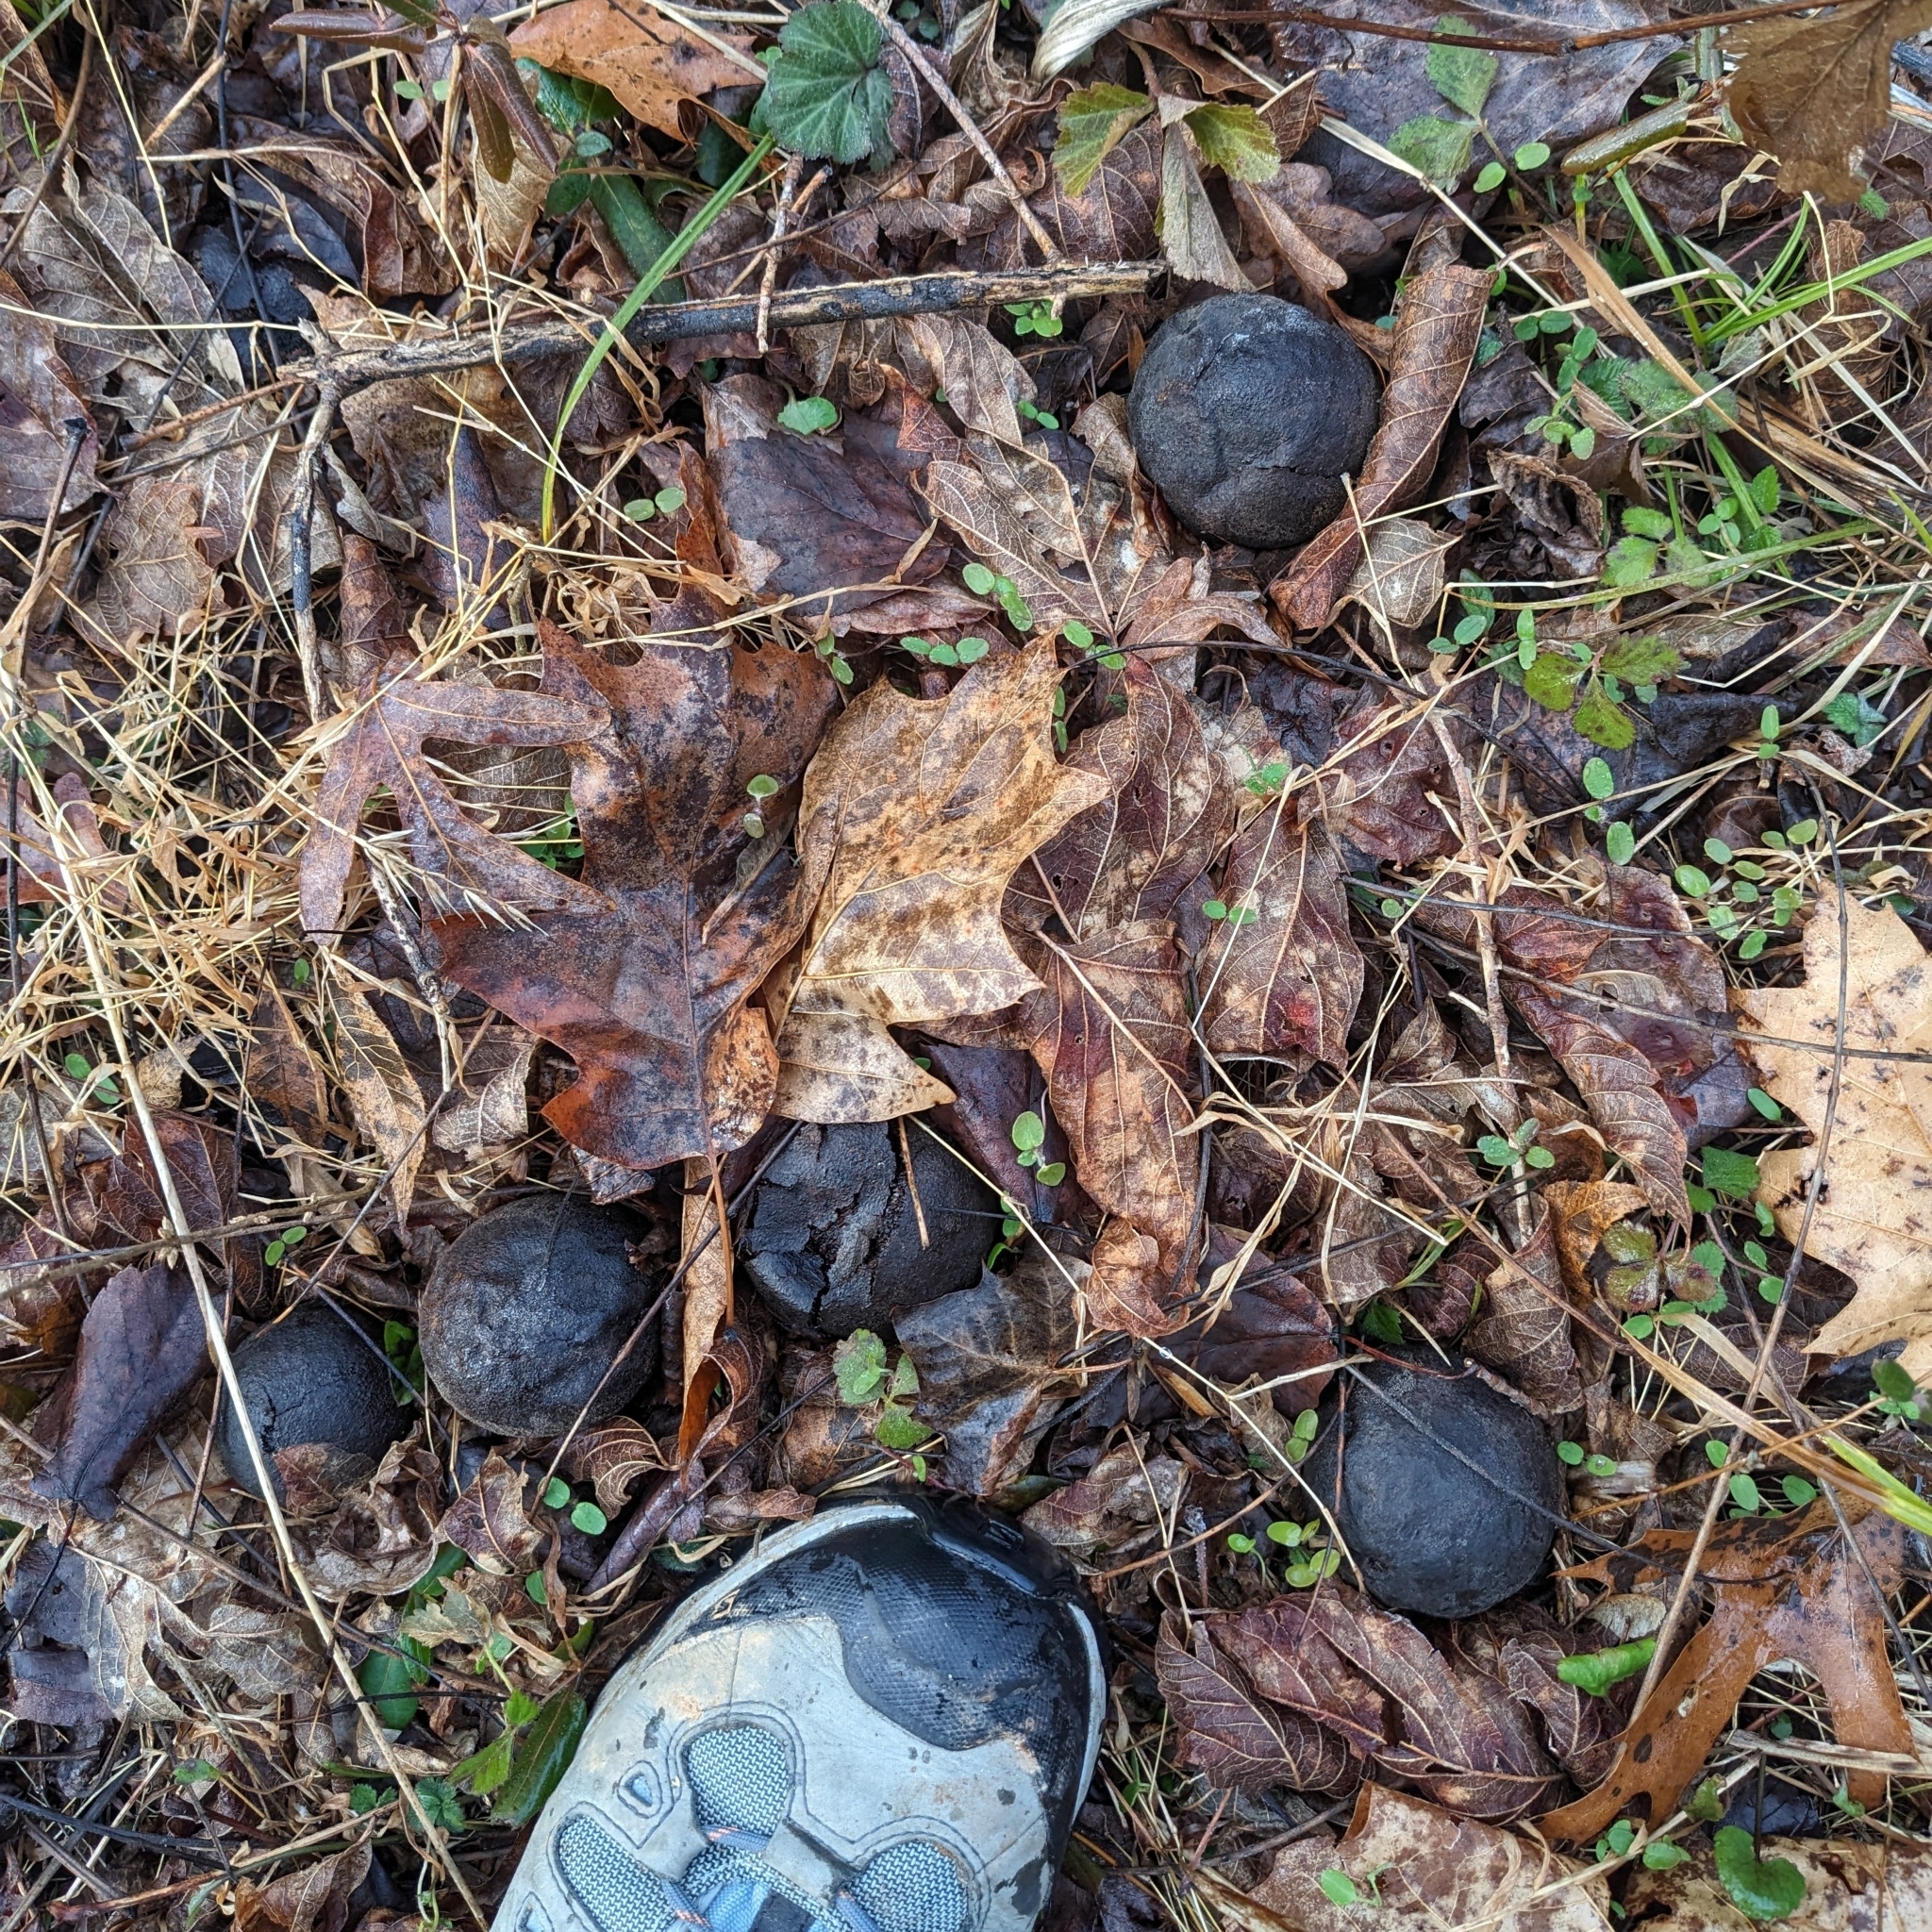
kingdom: Plantae
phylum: Tracheophyta
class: Magnoliopsida
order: Fagales
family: Juglandaceae
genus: Juglans
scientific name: Juglans nigra
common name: Black walnut
